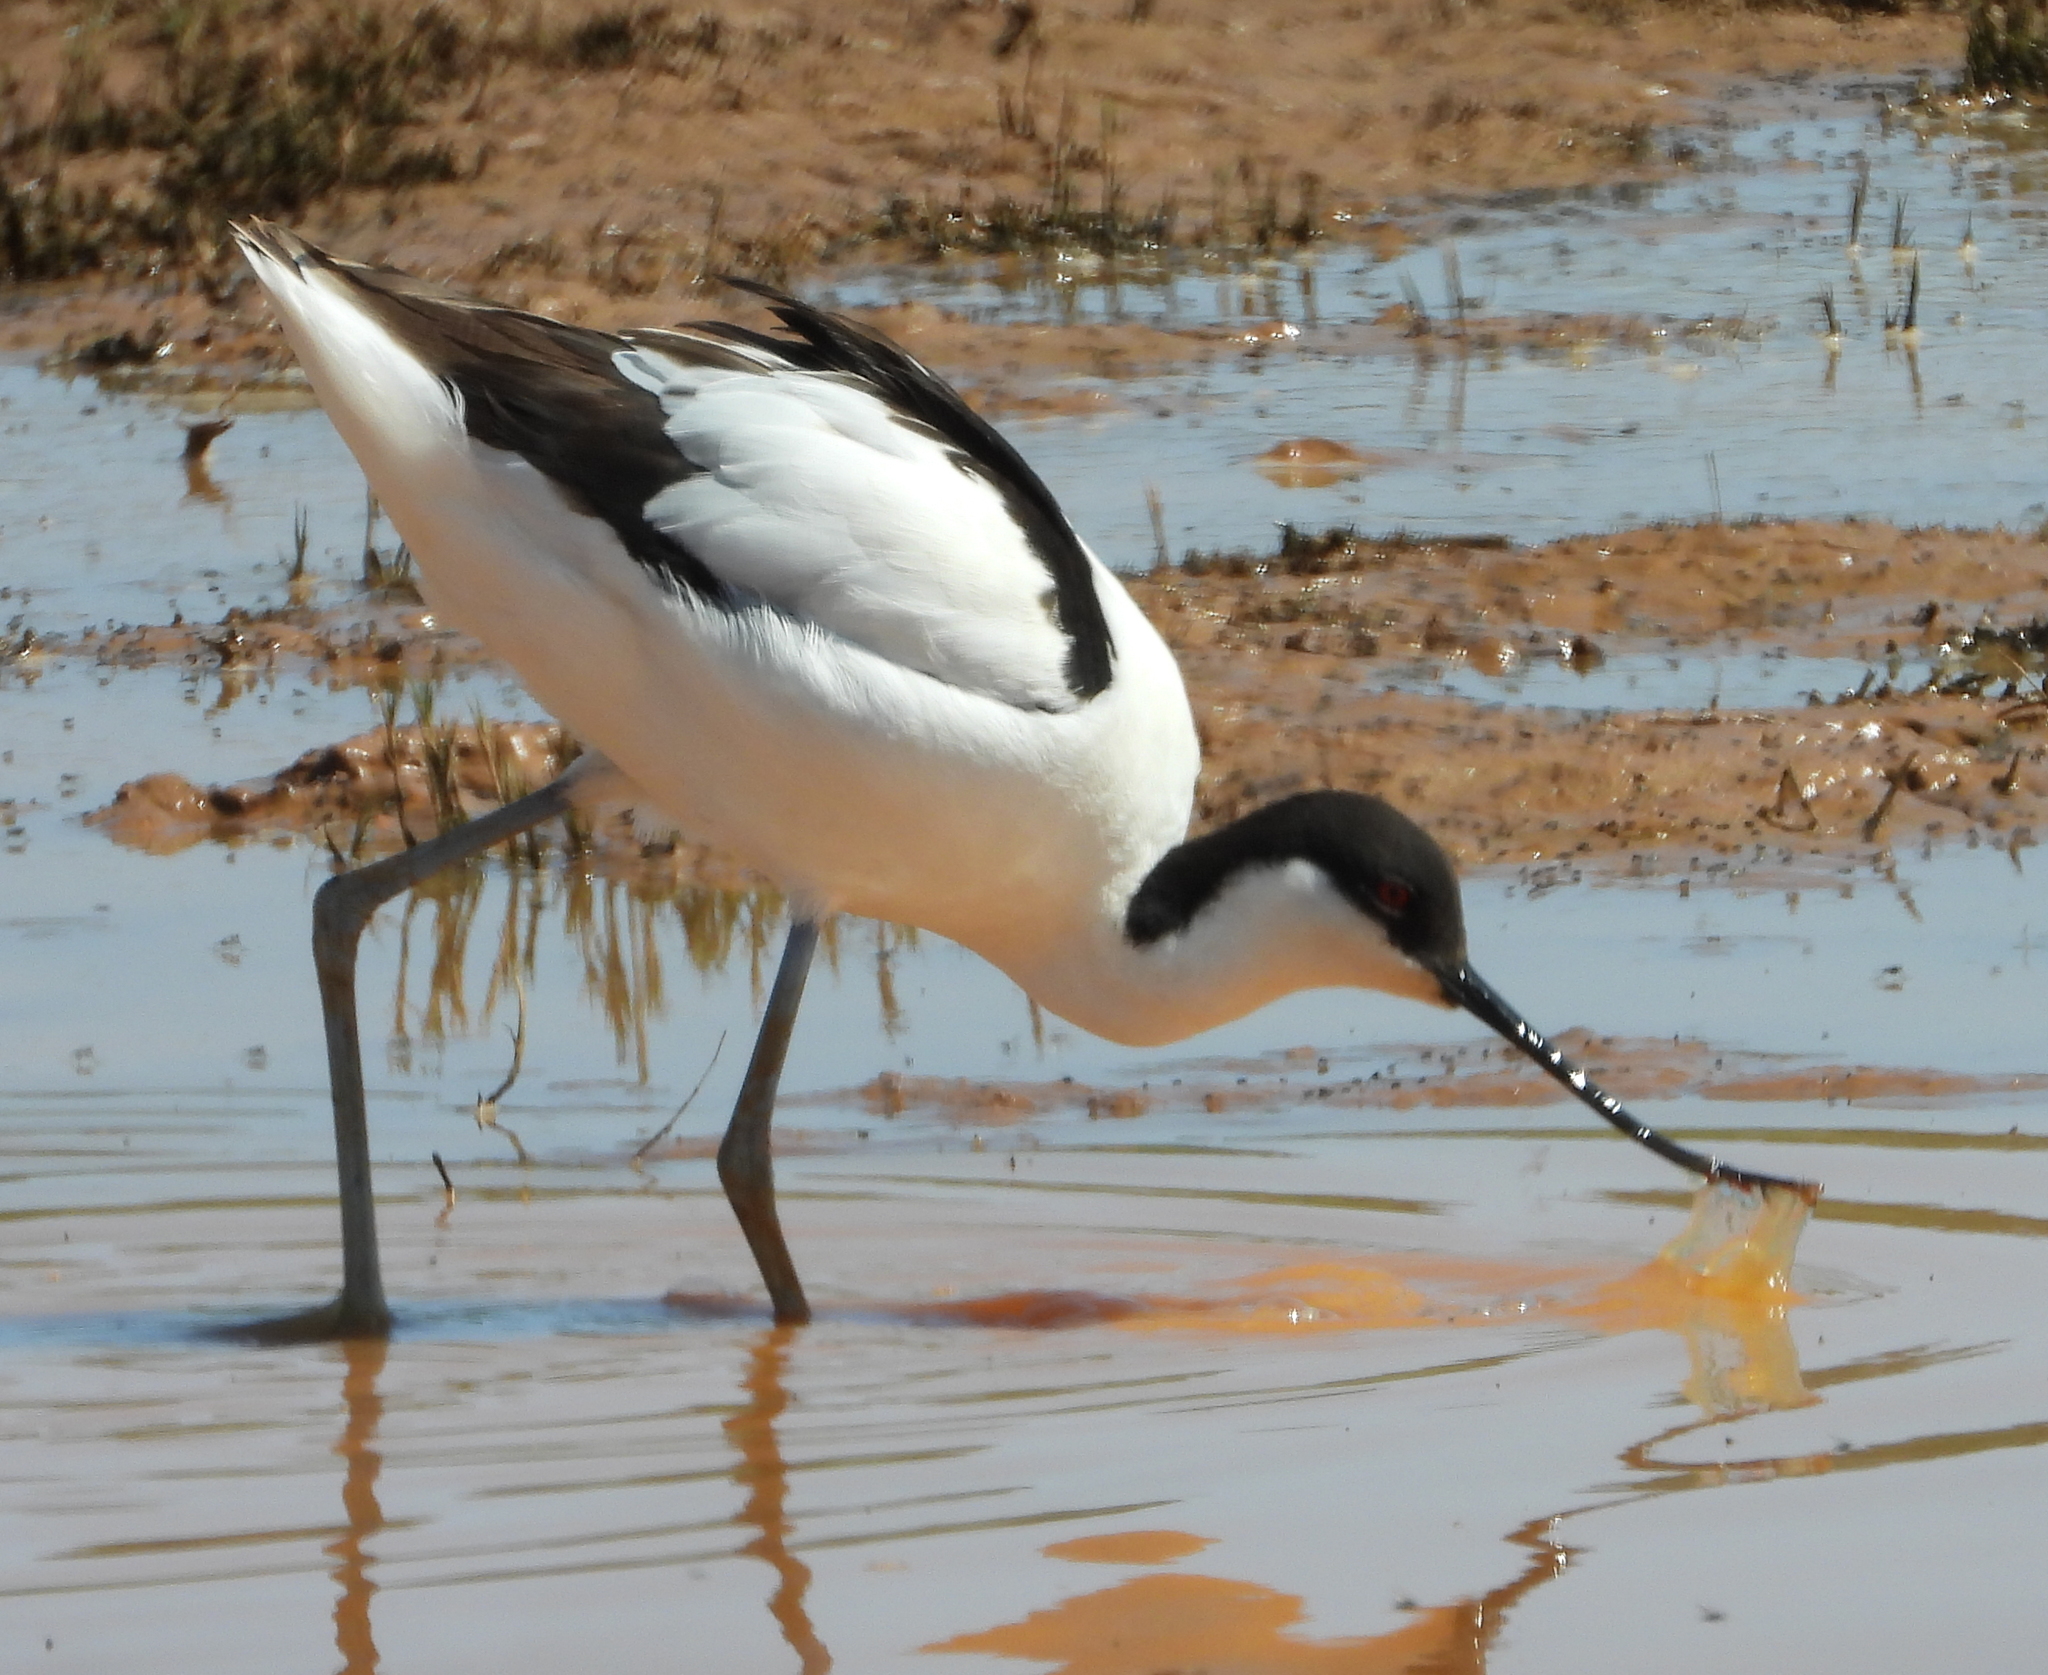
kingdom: Animalia
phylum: Chordata
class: Aves
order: Charadriiformes
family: Recurvirostridae
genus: Recurvirostra
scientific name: Recurvirostra avosetta
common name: Pied avocet
